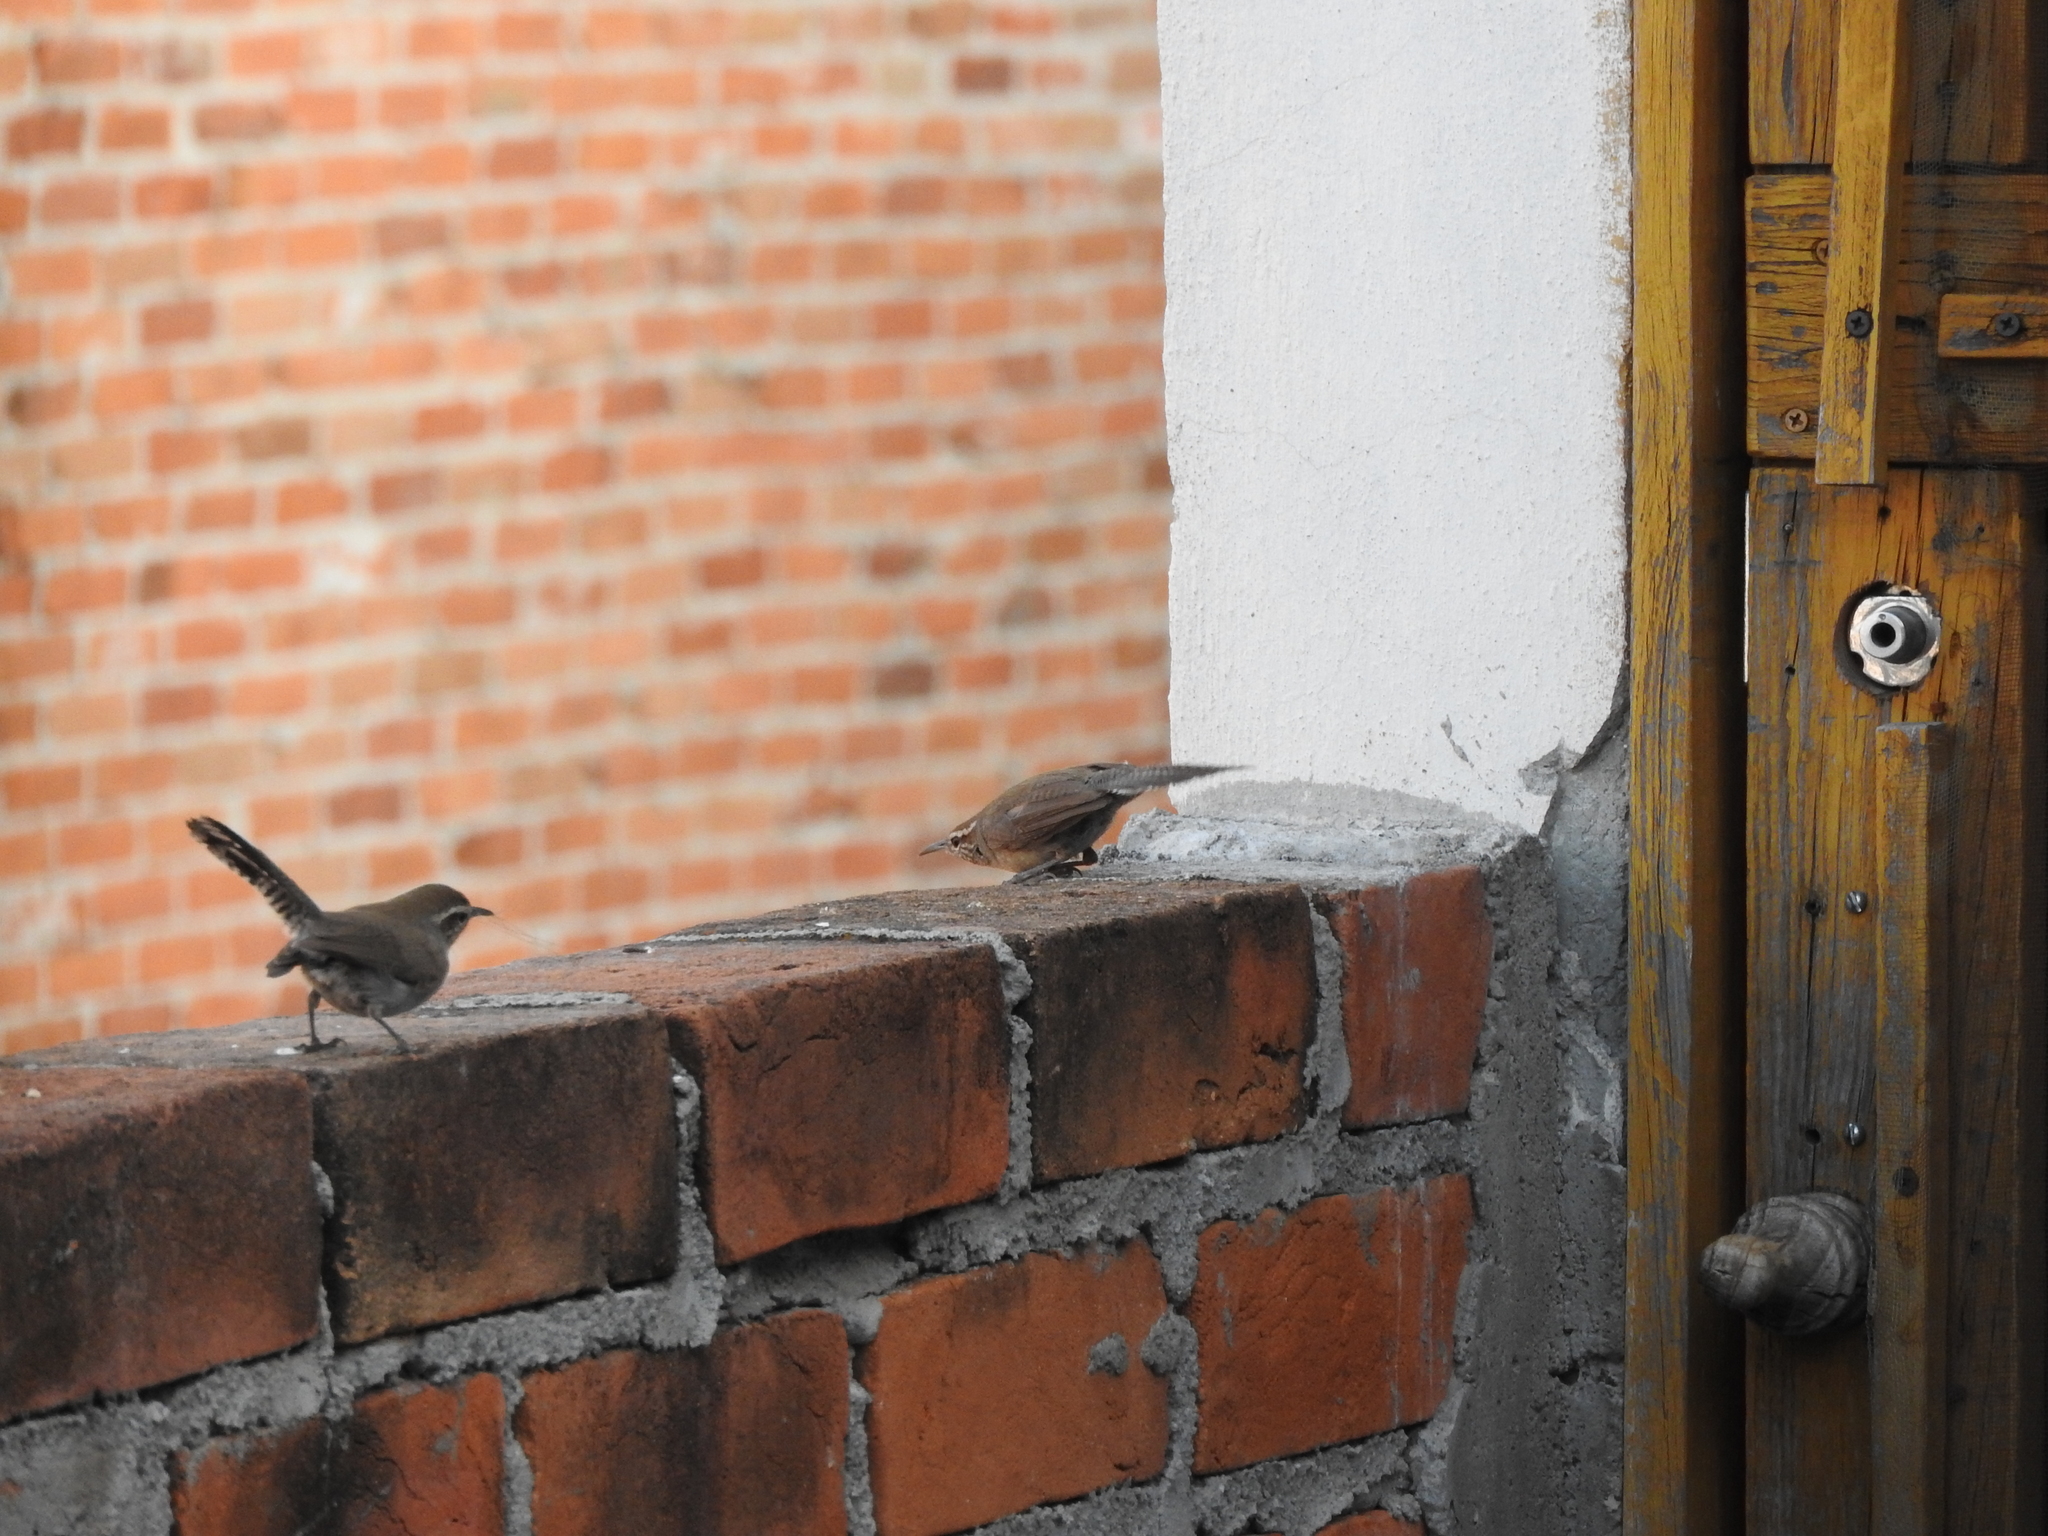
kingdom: Animalia
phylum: Chordata
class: Aves
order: Passeriformes
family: Troglodytidae
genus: Thryomanes
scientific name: Thryomanes bewickii
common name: Bewick's wren
